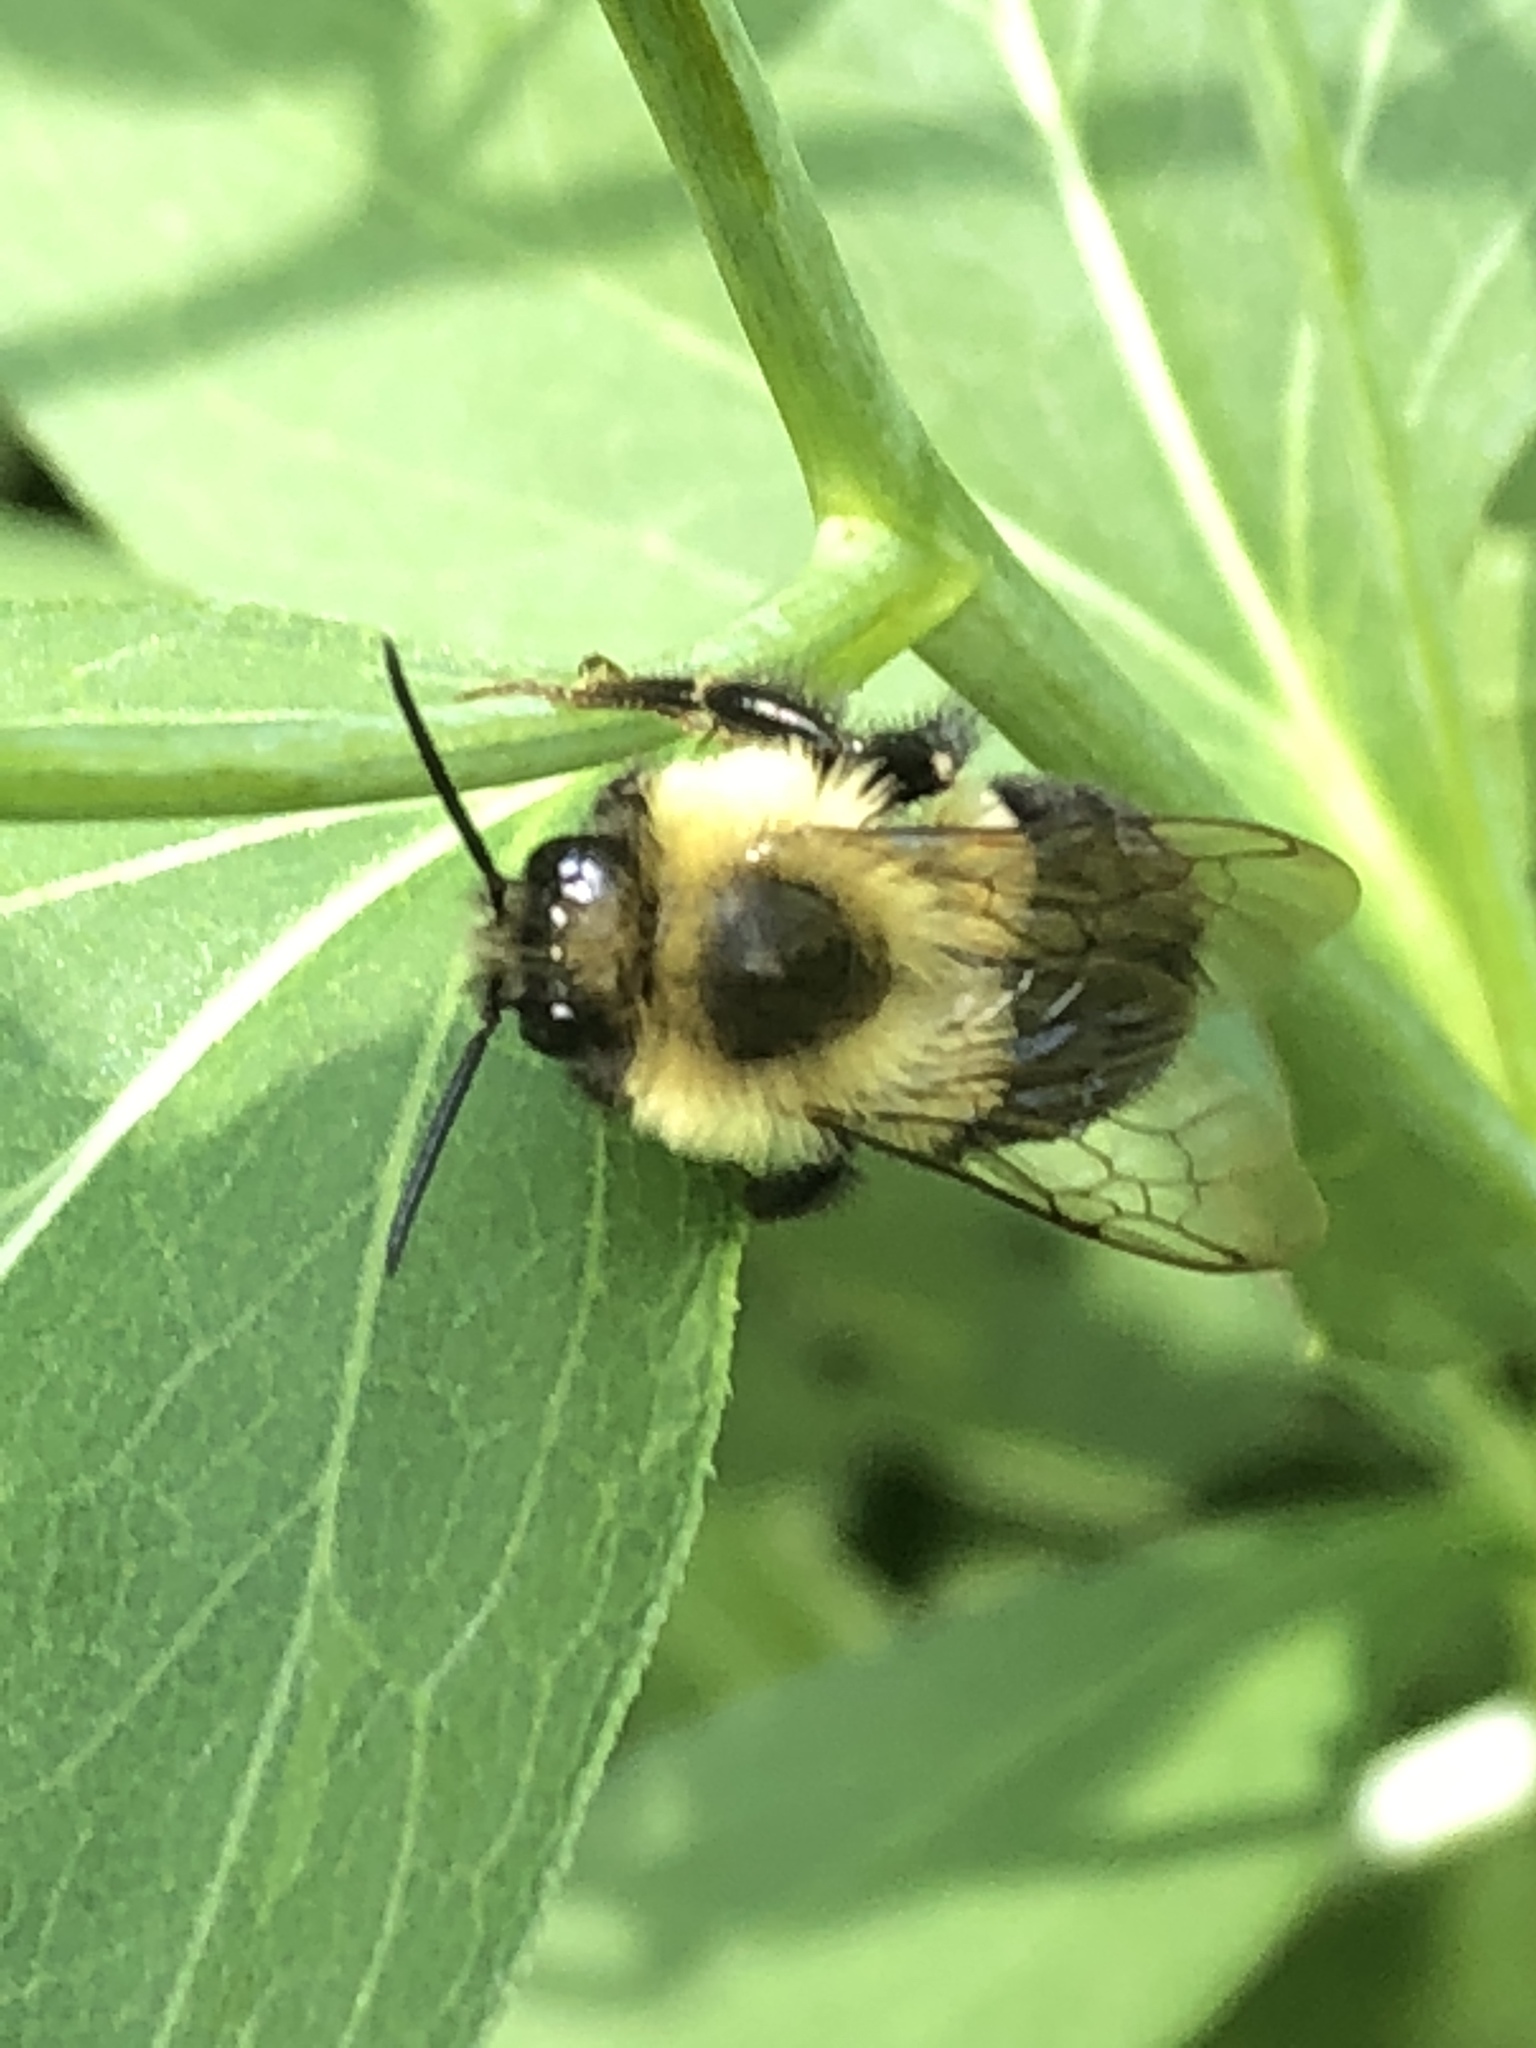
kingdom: Animalia
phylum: Arthropoda
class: Insecta
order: Hymenoptera
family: Apidae
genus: Bombus
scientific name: Bombus impatiens
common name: Common eastern bumble bee
